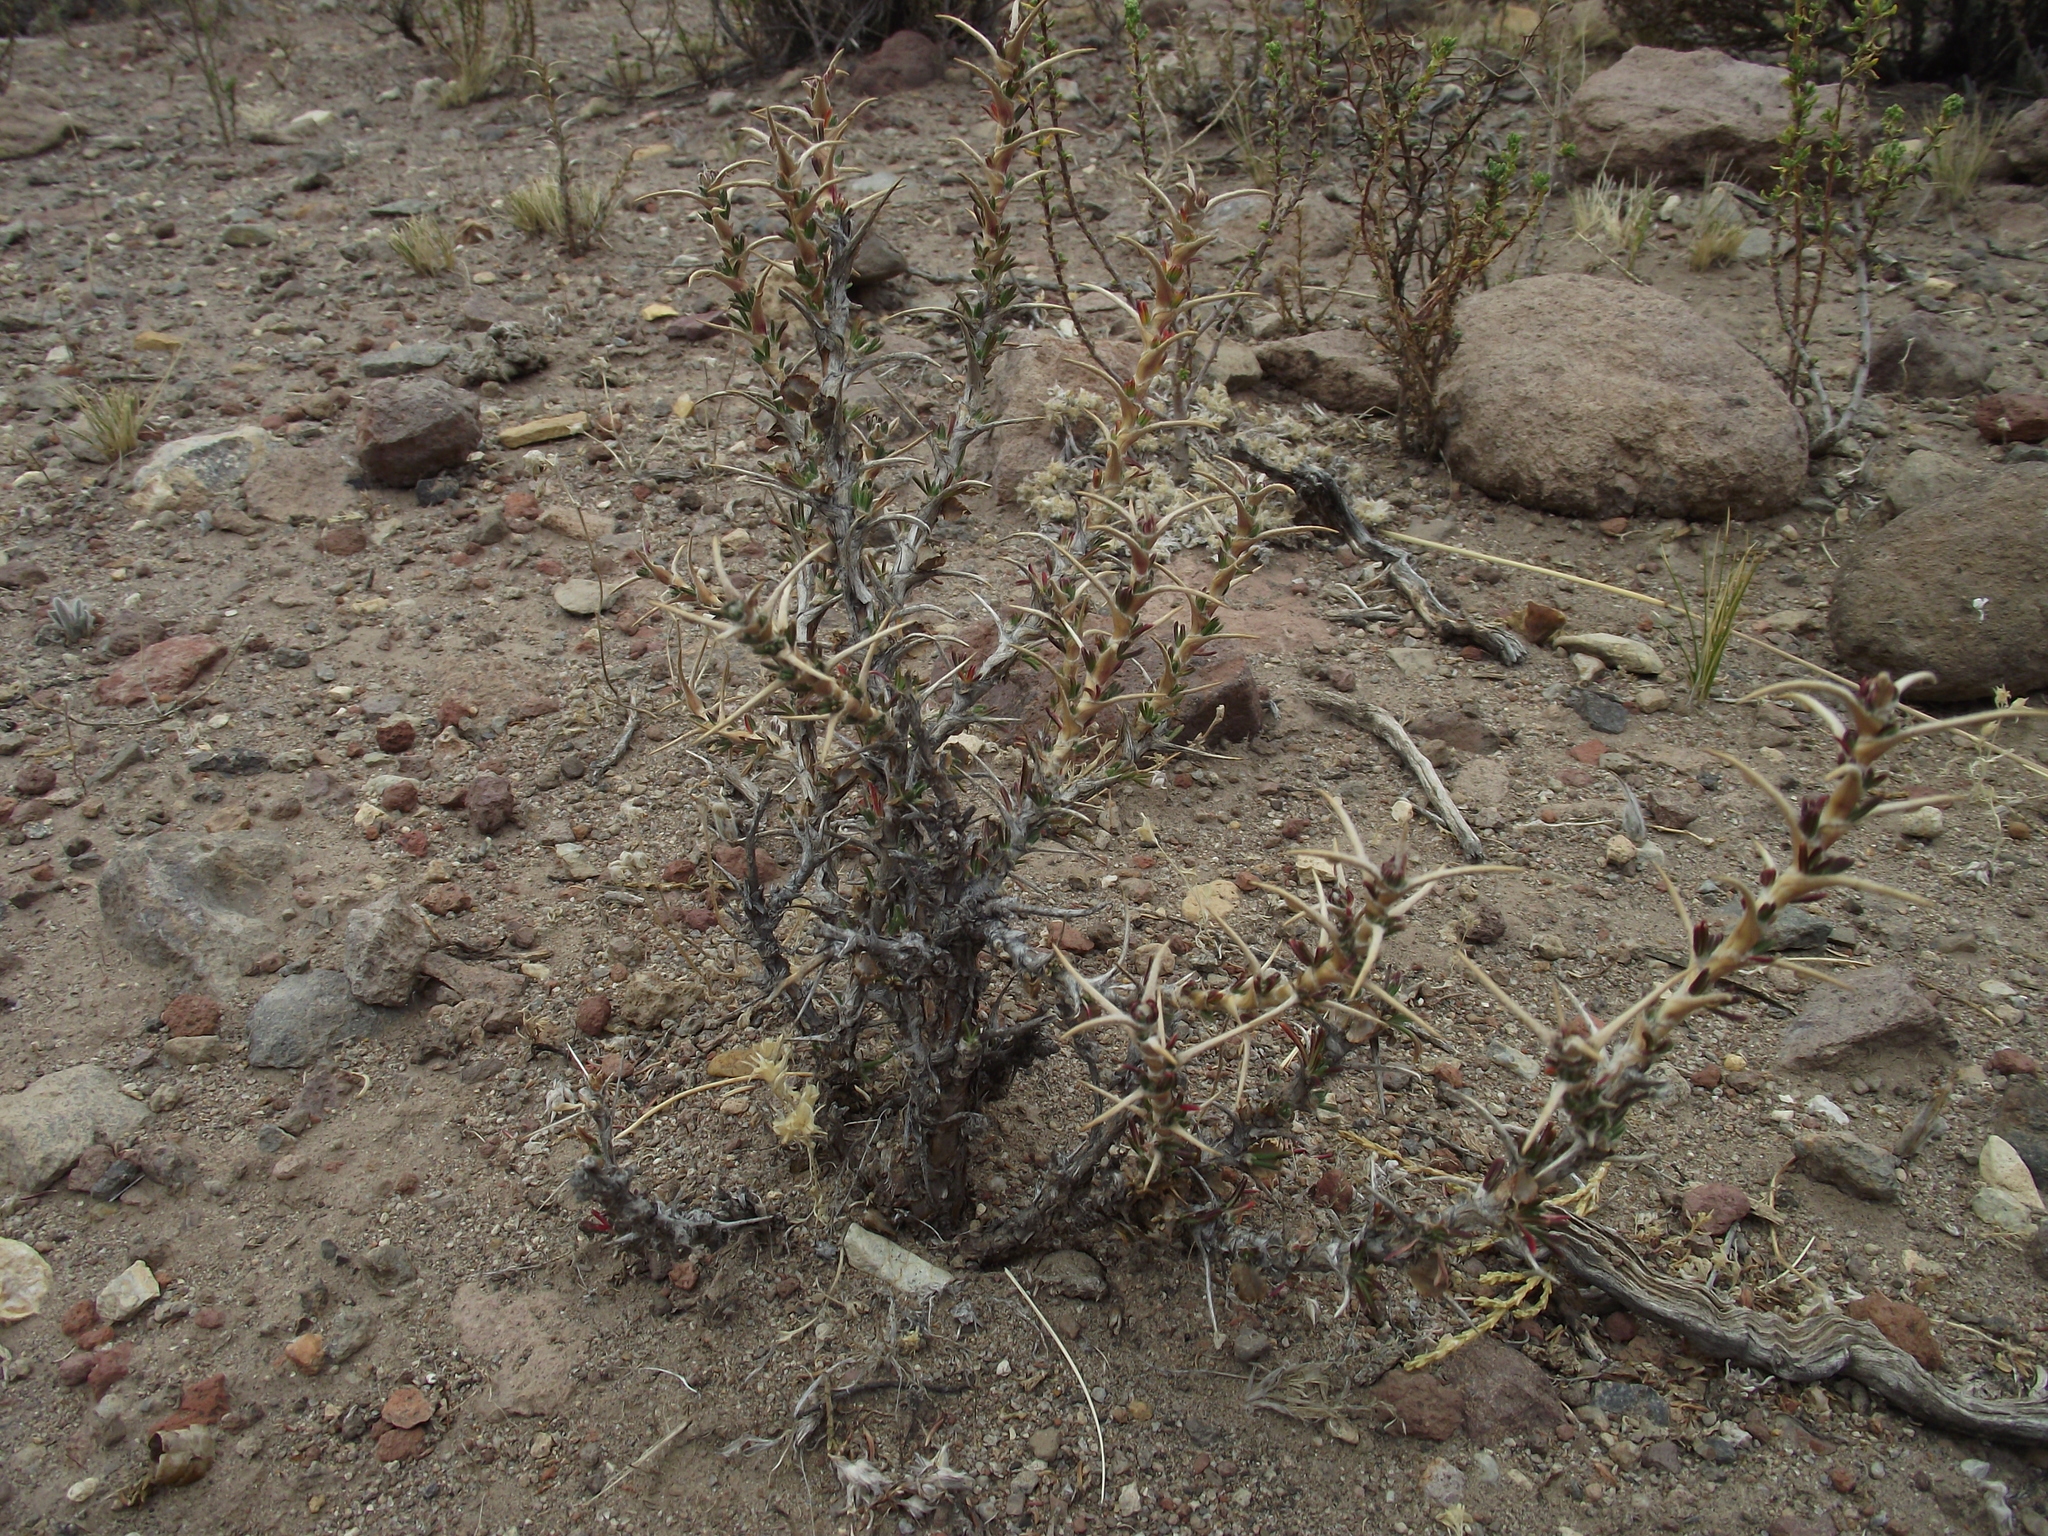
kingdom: Plantae
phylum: Tracheophyta
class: Magnoliopsida
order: Rosales
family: Rosaceae
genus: Margyricarpus
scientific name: Margyricarpus cristatus
